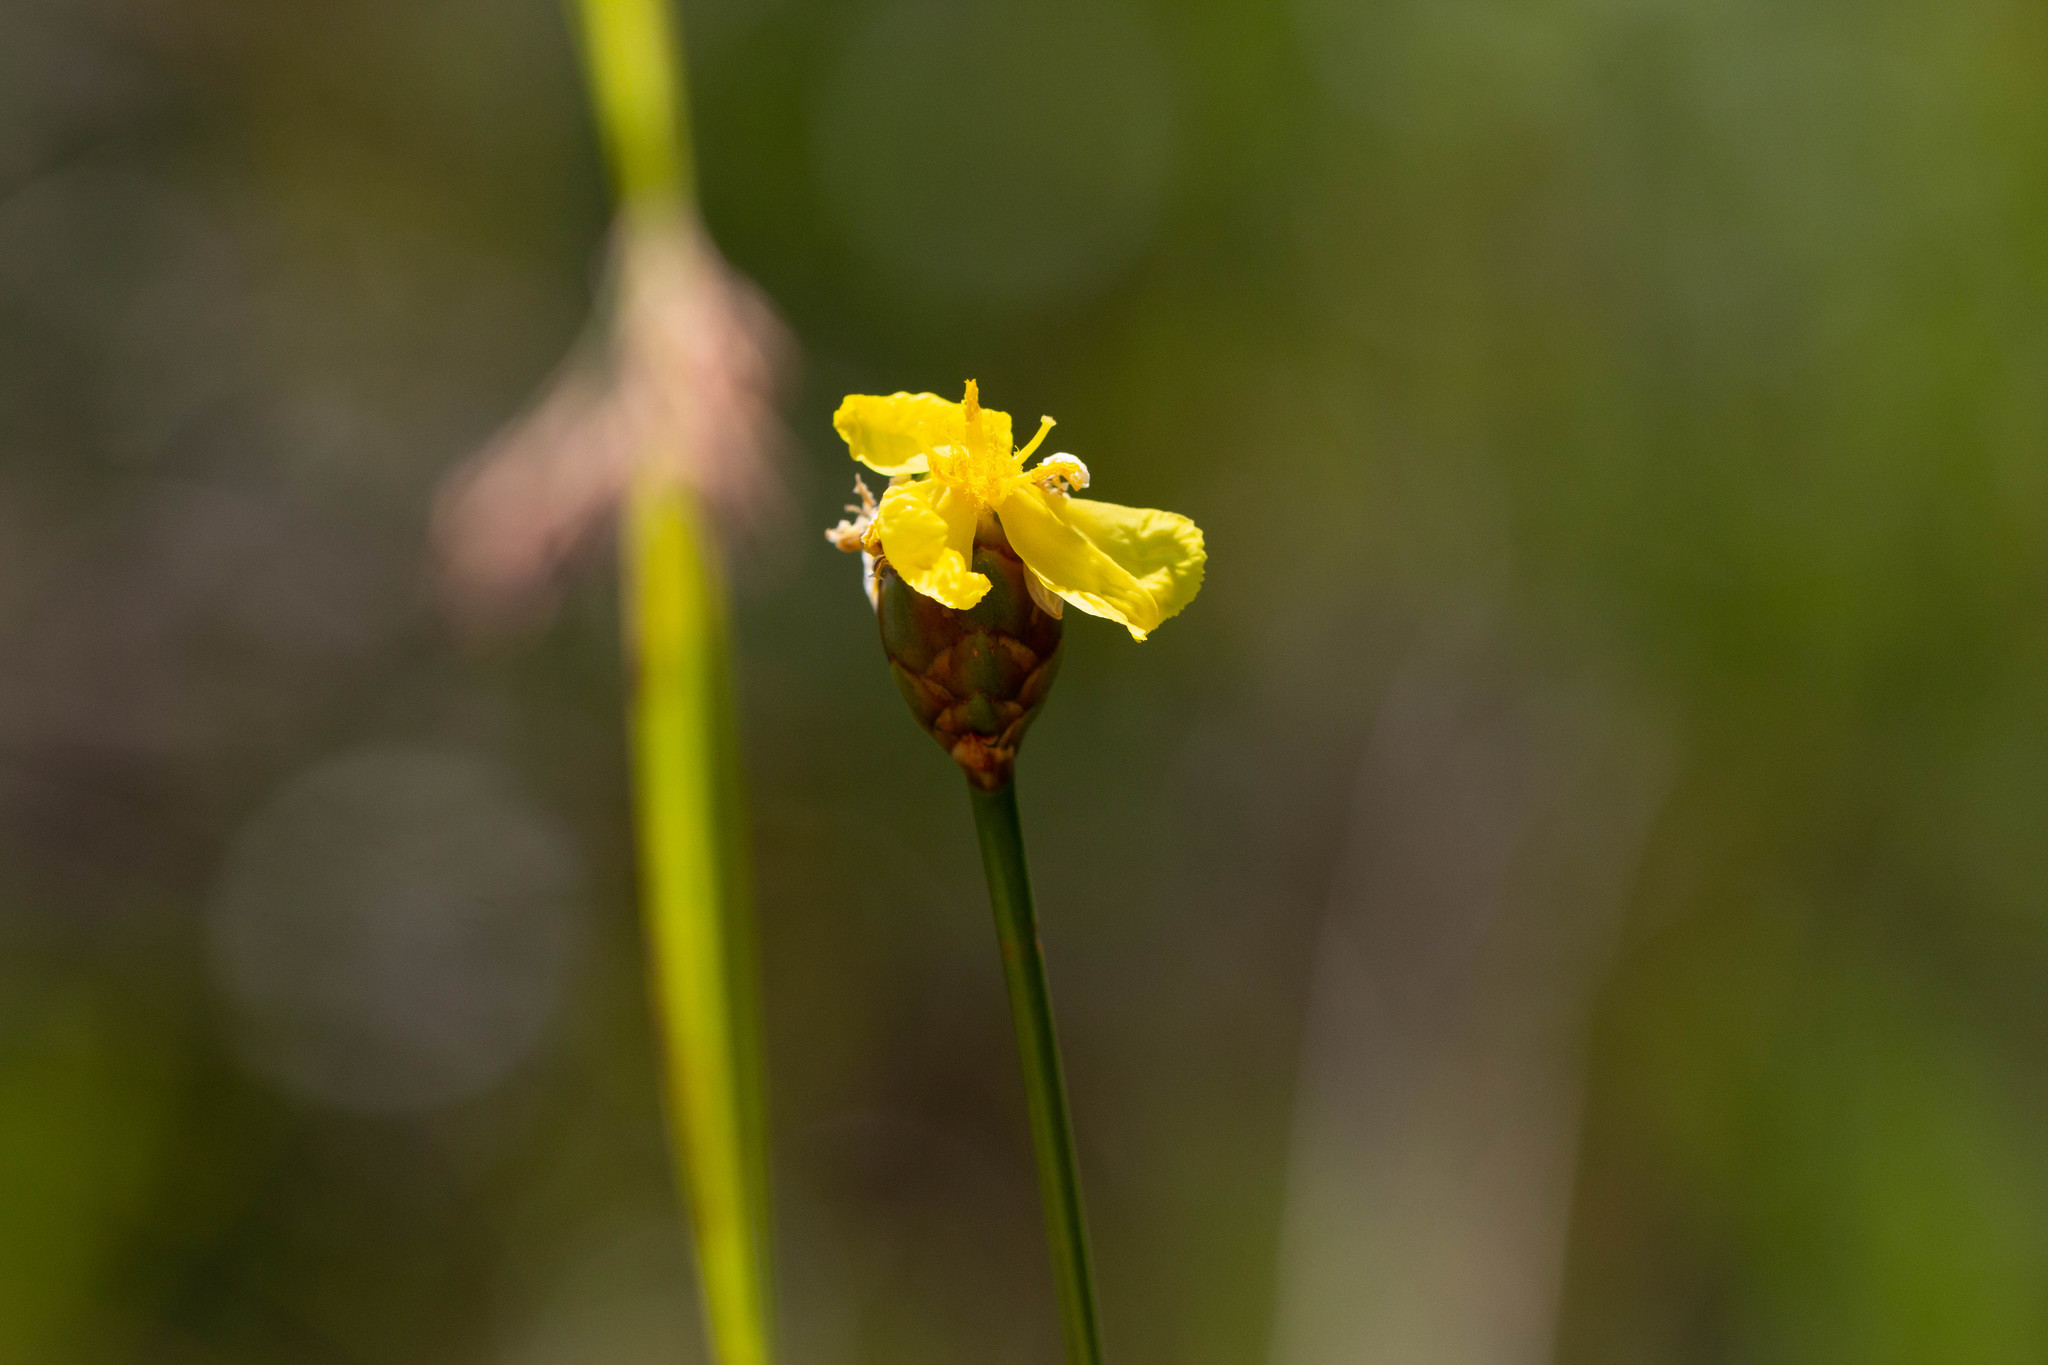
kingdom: Plantae
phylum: Tracheophyta
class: Liliopsida
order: Poales
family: Xyridaceae
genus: Xyris
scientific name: Xyris ambigua
